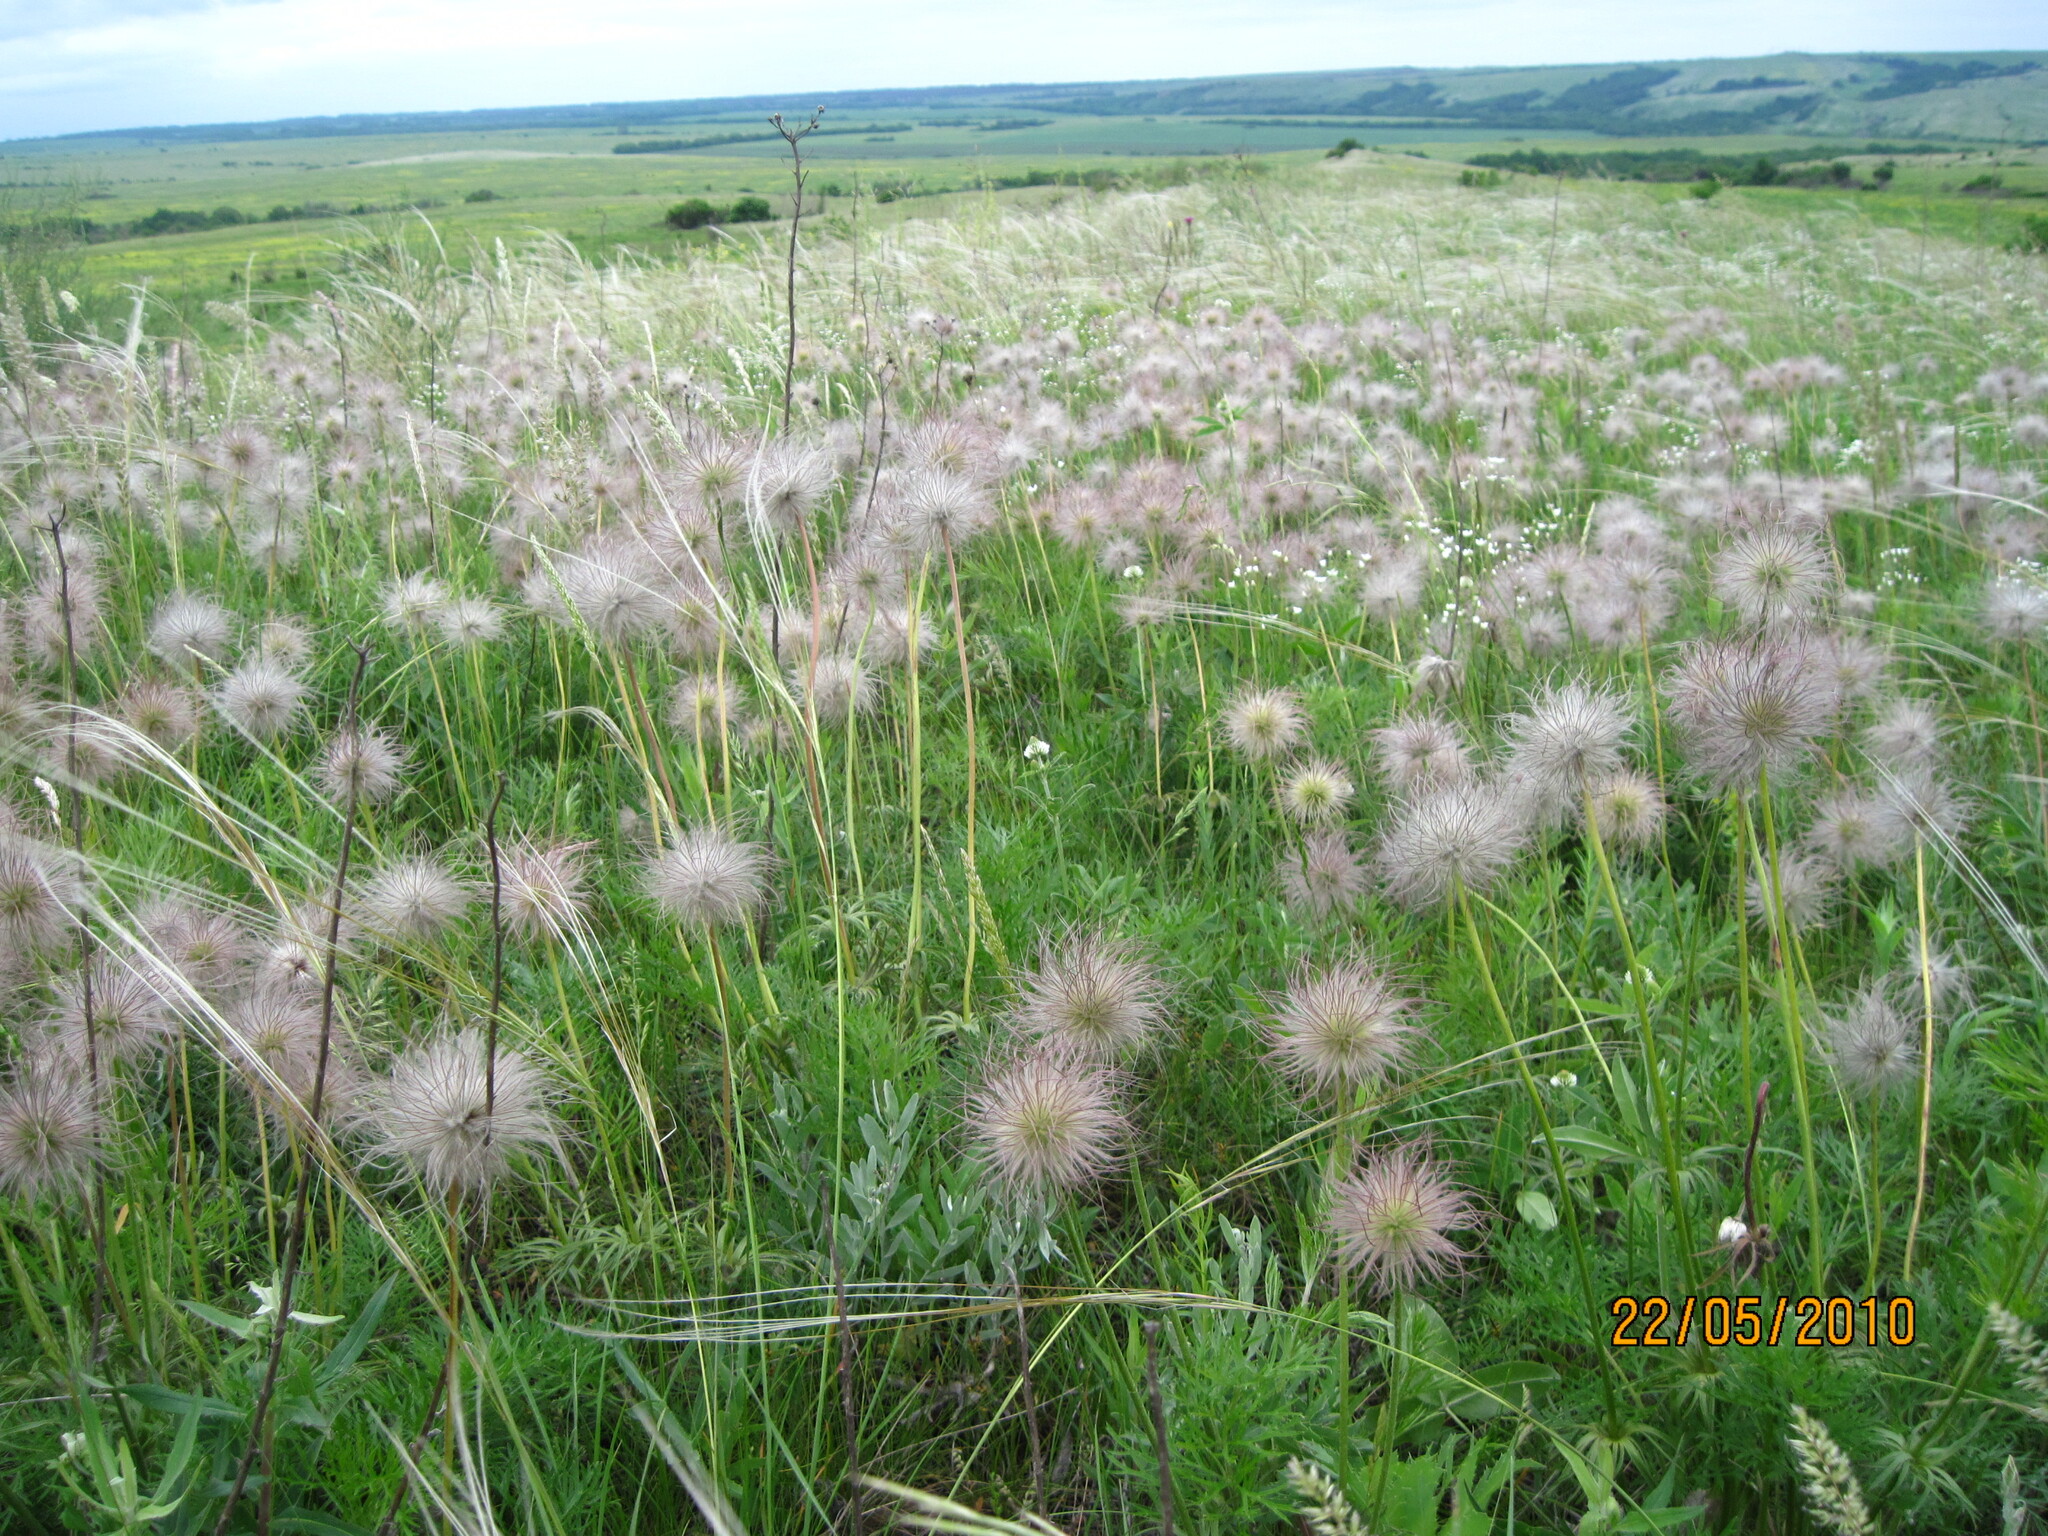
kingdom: Plantae
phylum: Tracheophyta
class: Magnoliopsida
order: Ranunculales
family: Ranunculaceae
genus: Pulsatilla
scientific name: Pulsatilla pratensis
